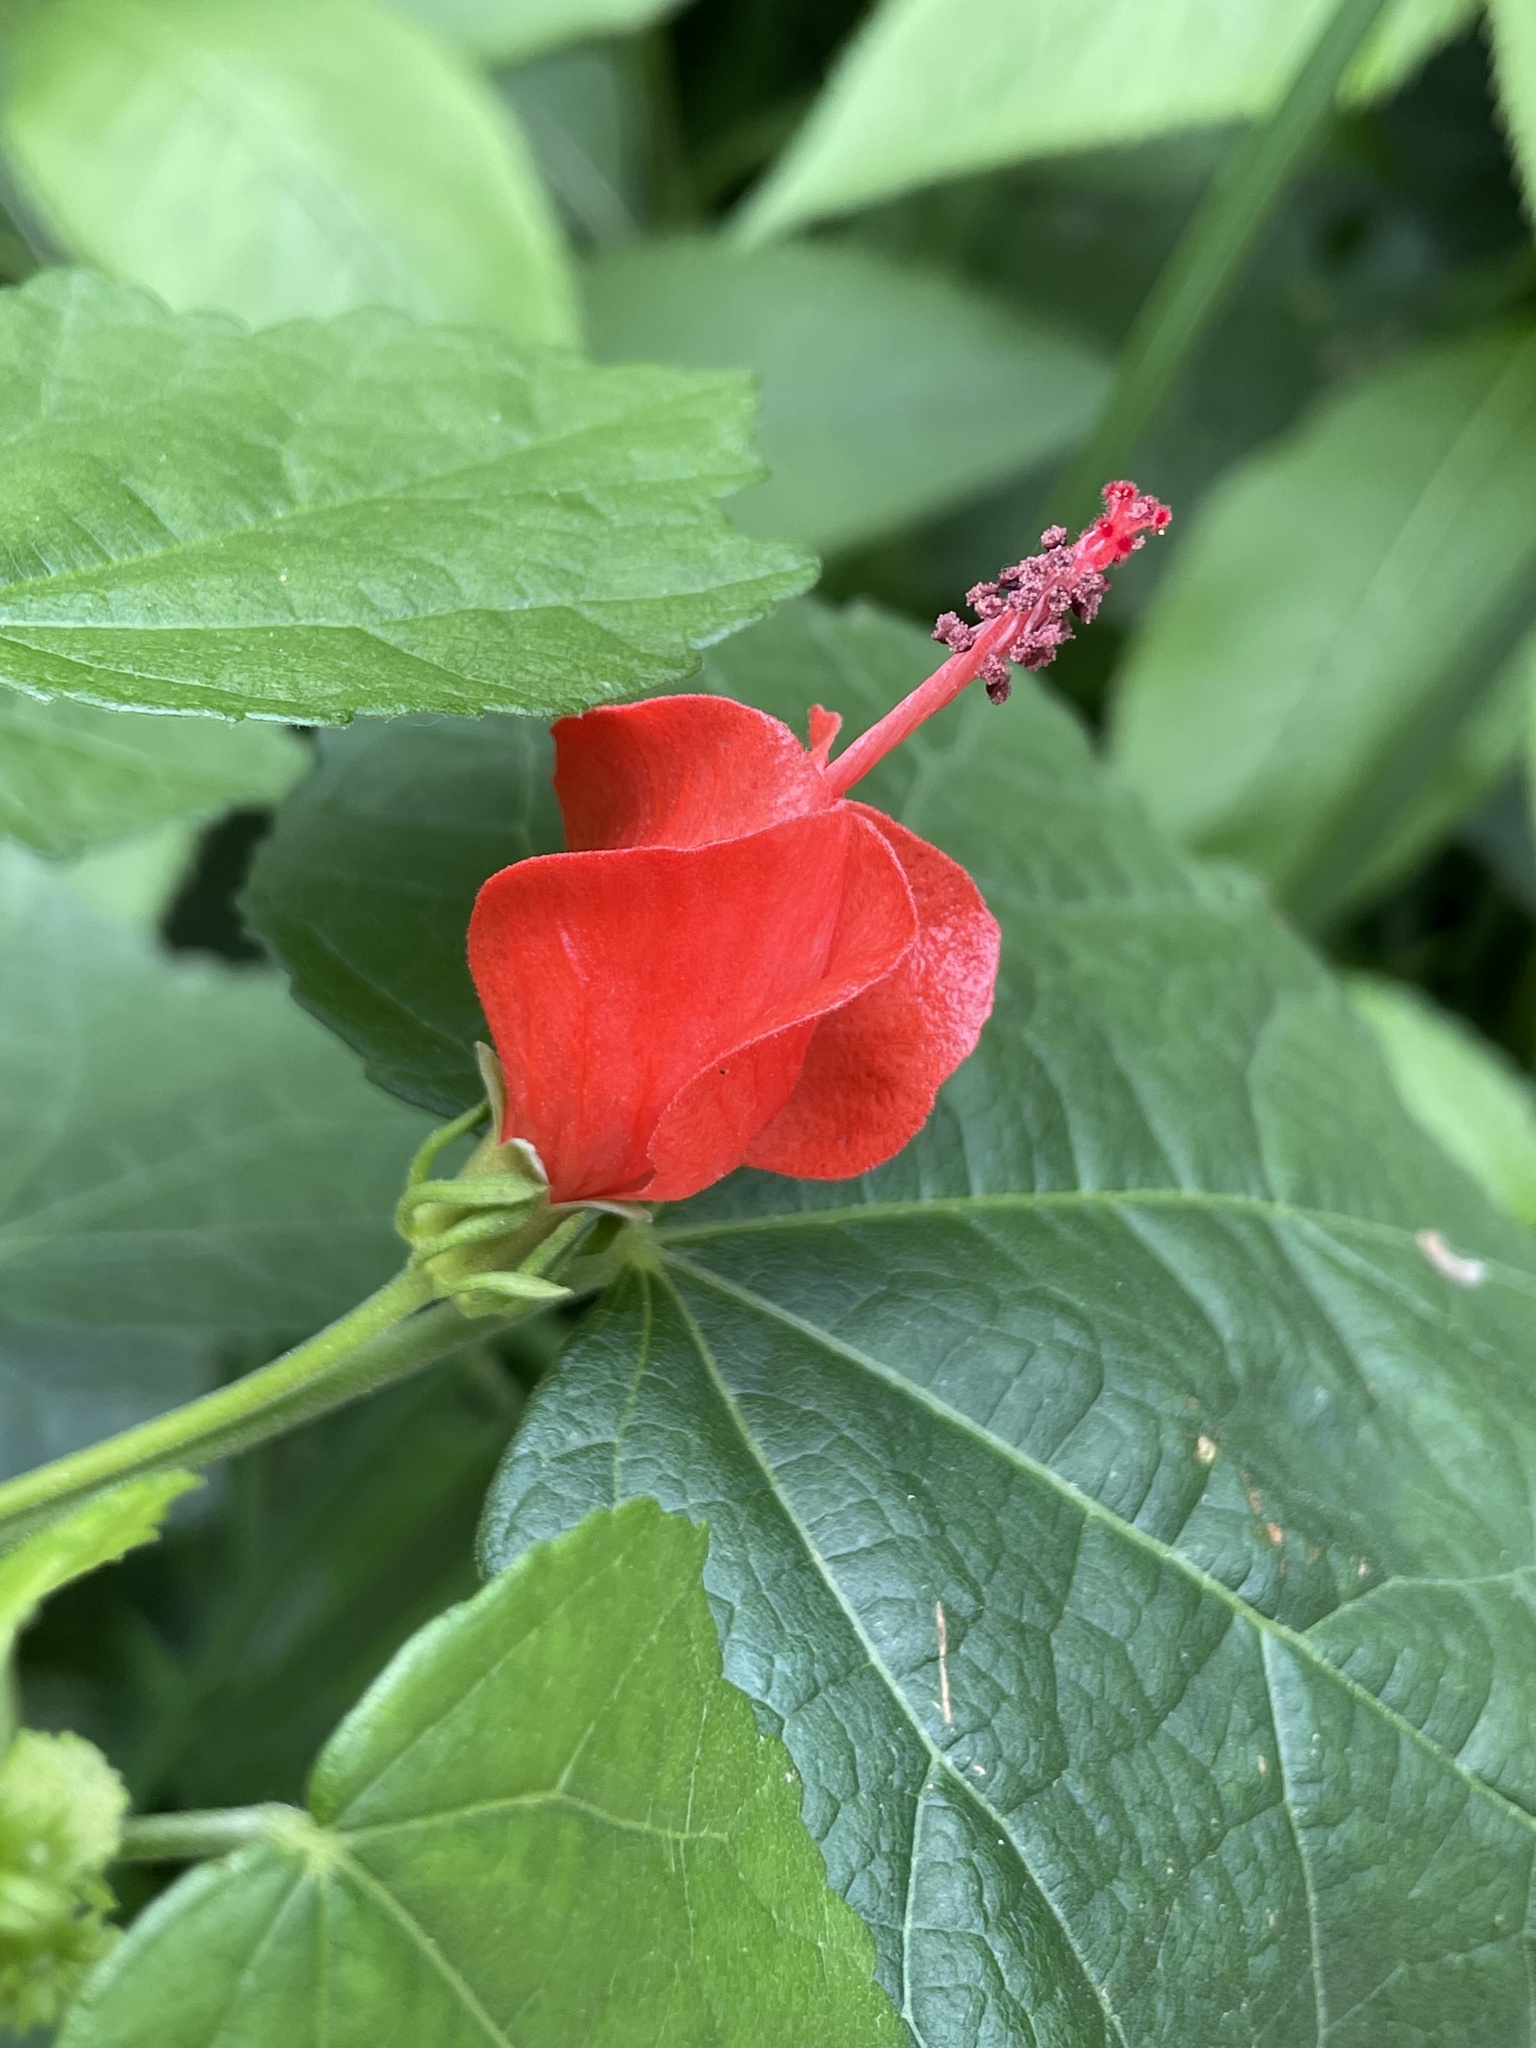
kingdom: Plantae
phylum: Tracheophyta
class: Magnoliopsida
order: Malvales
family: Malvaceae
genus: Malvaviscus
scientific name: Malvaviscus arboreus
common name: Wax mallow
